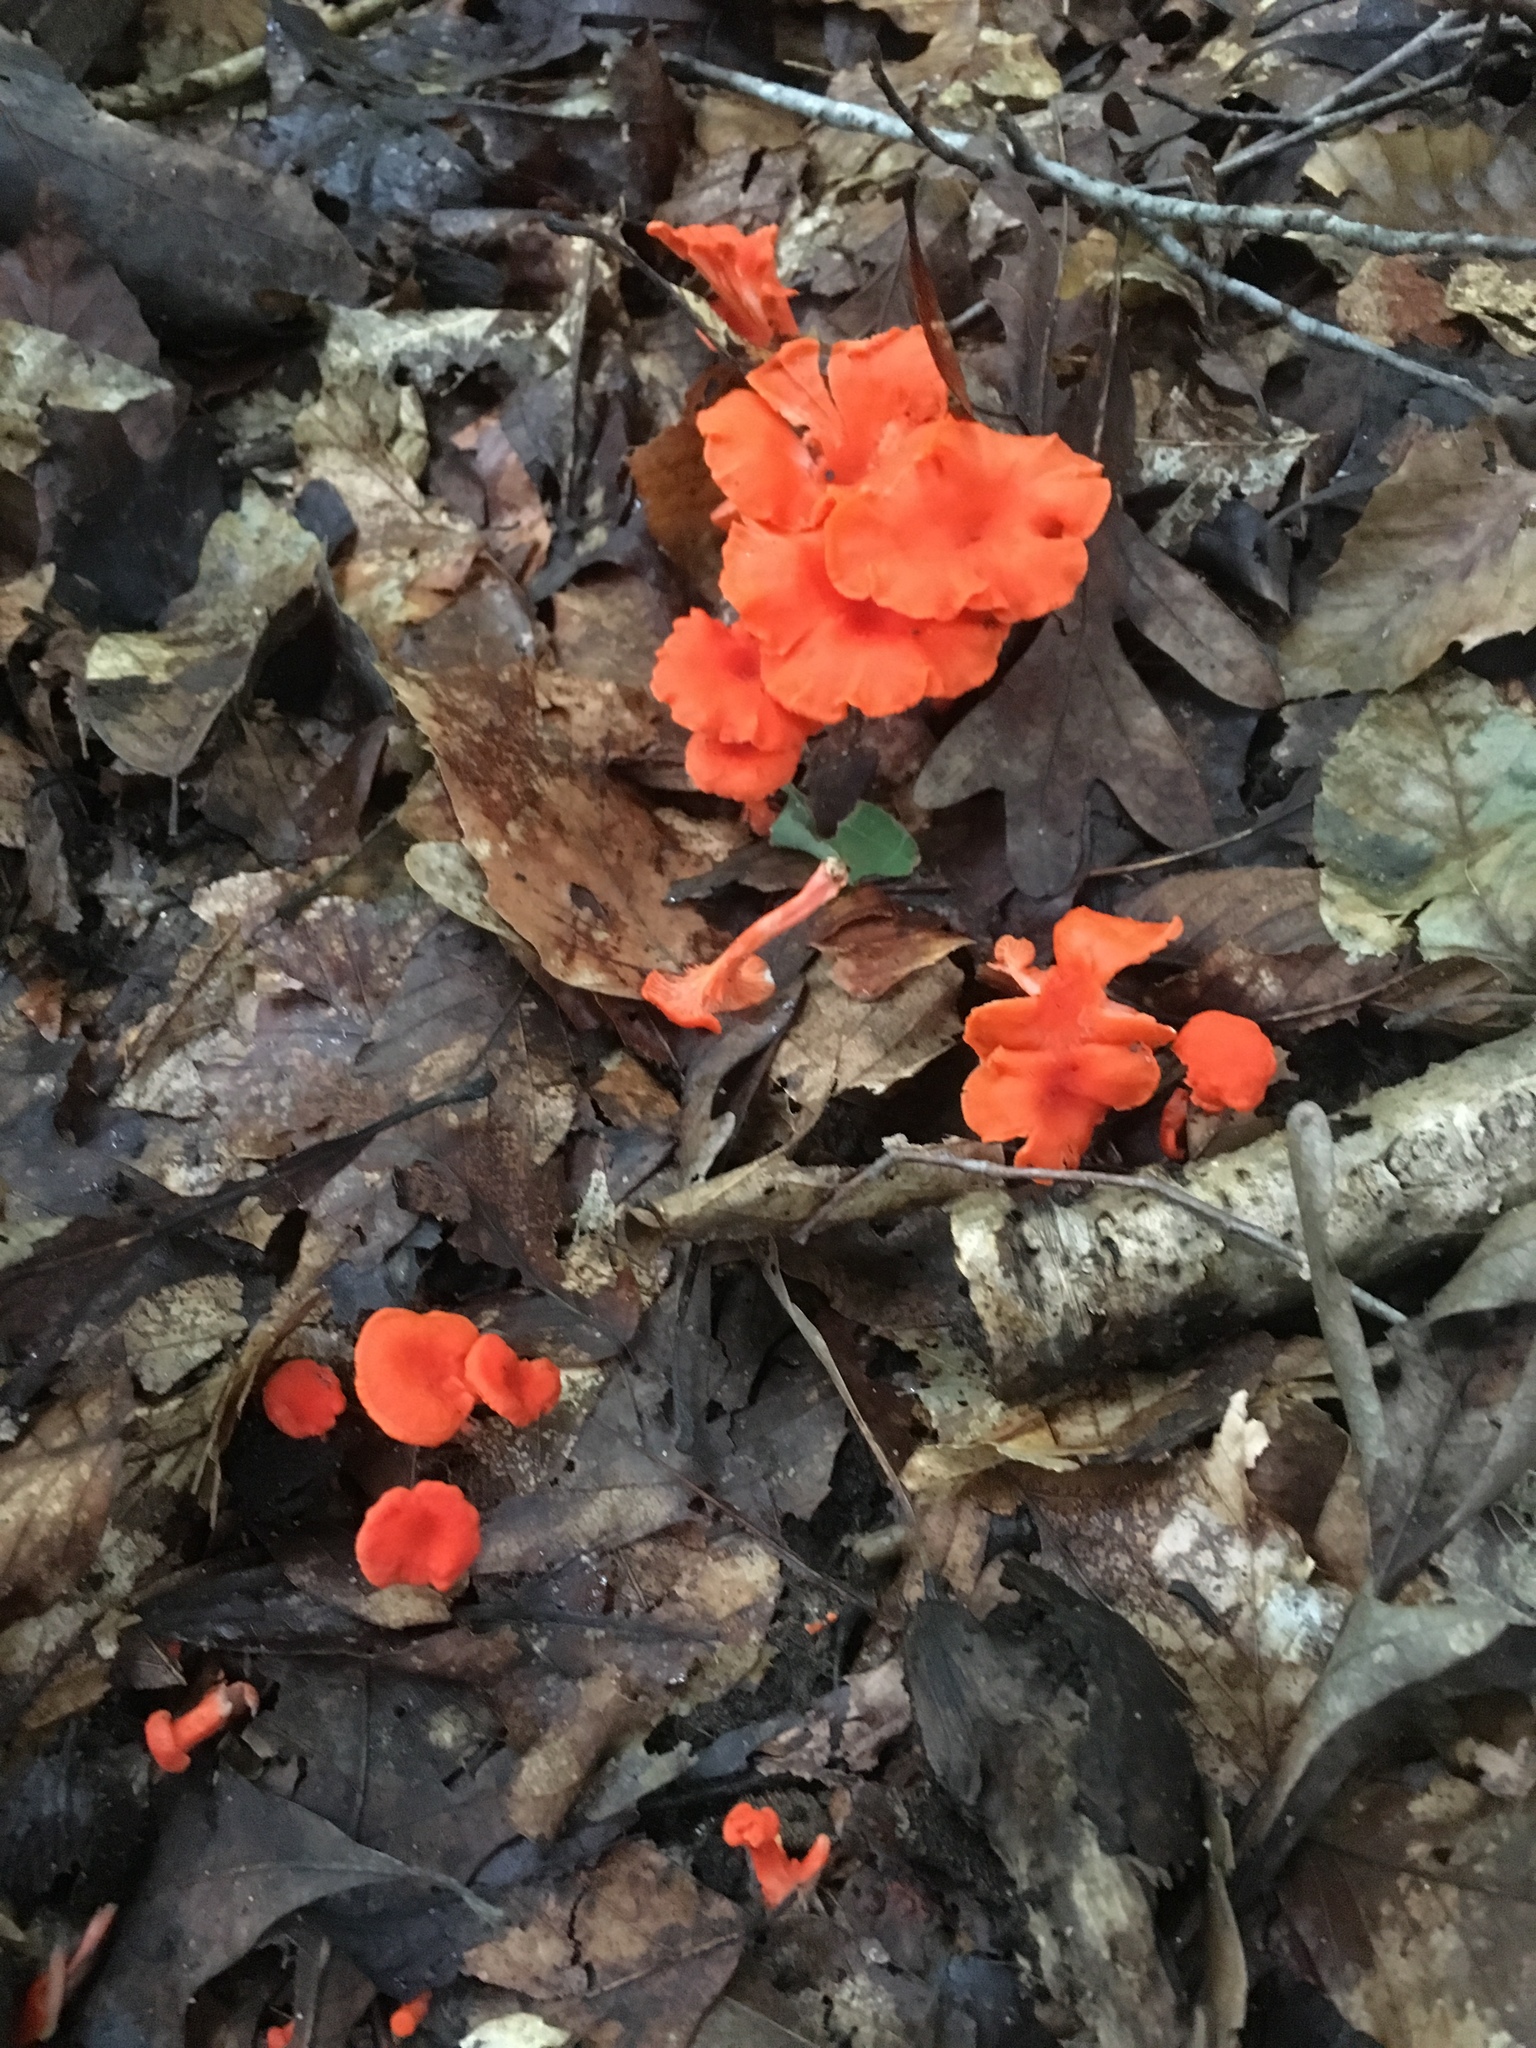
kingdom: Fungi
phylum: Basidiomycota
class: Agaricomycetes
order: Cantharellales
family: Hydnaceae
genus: Cantharellus
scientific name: Cantharellus cinnabarinus
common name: Cinnabar chanterelle
